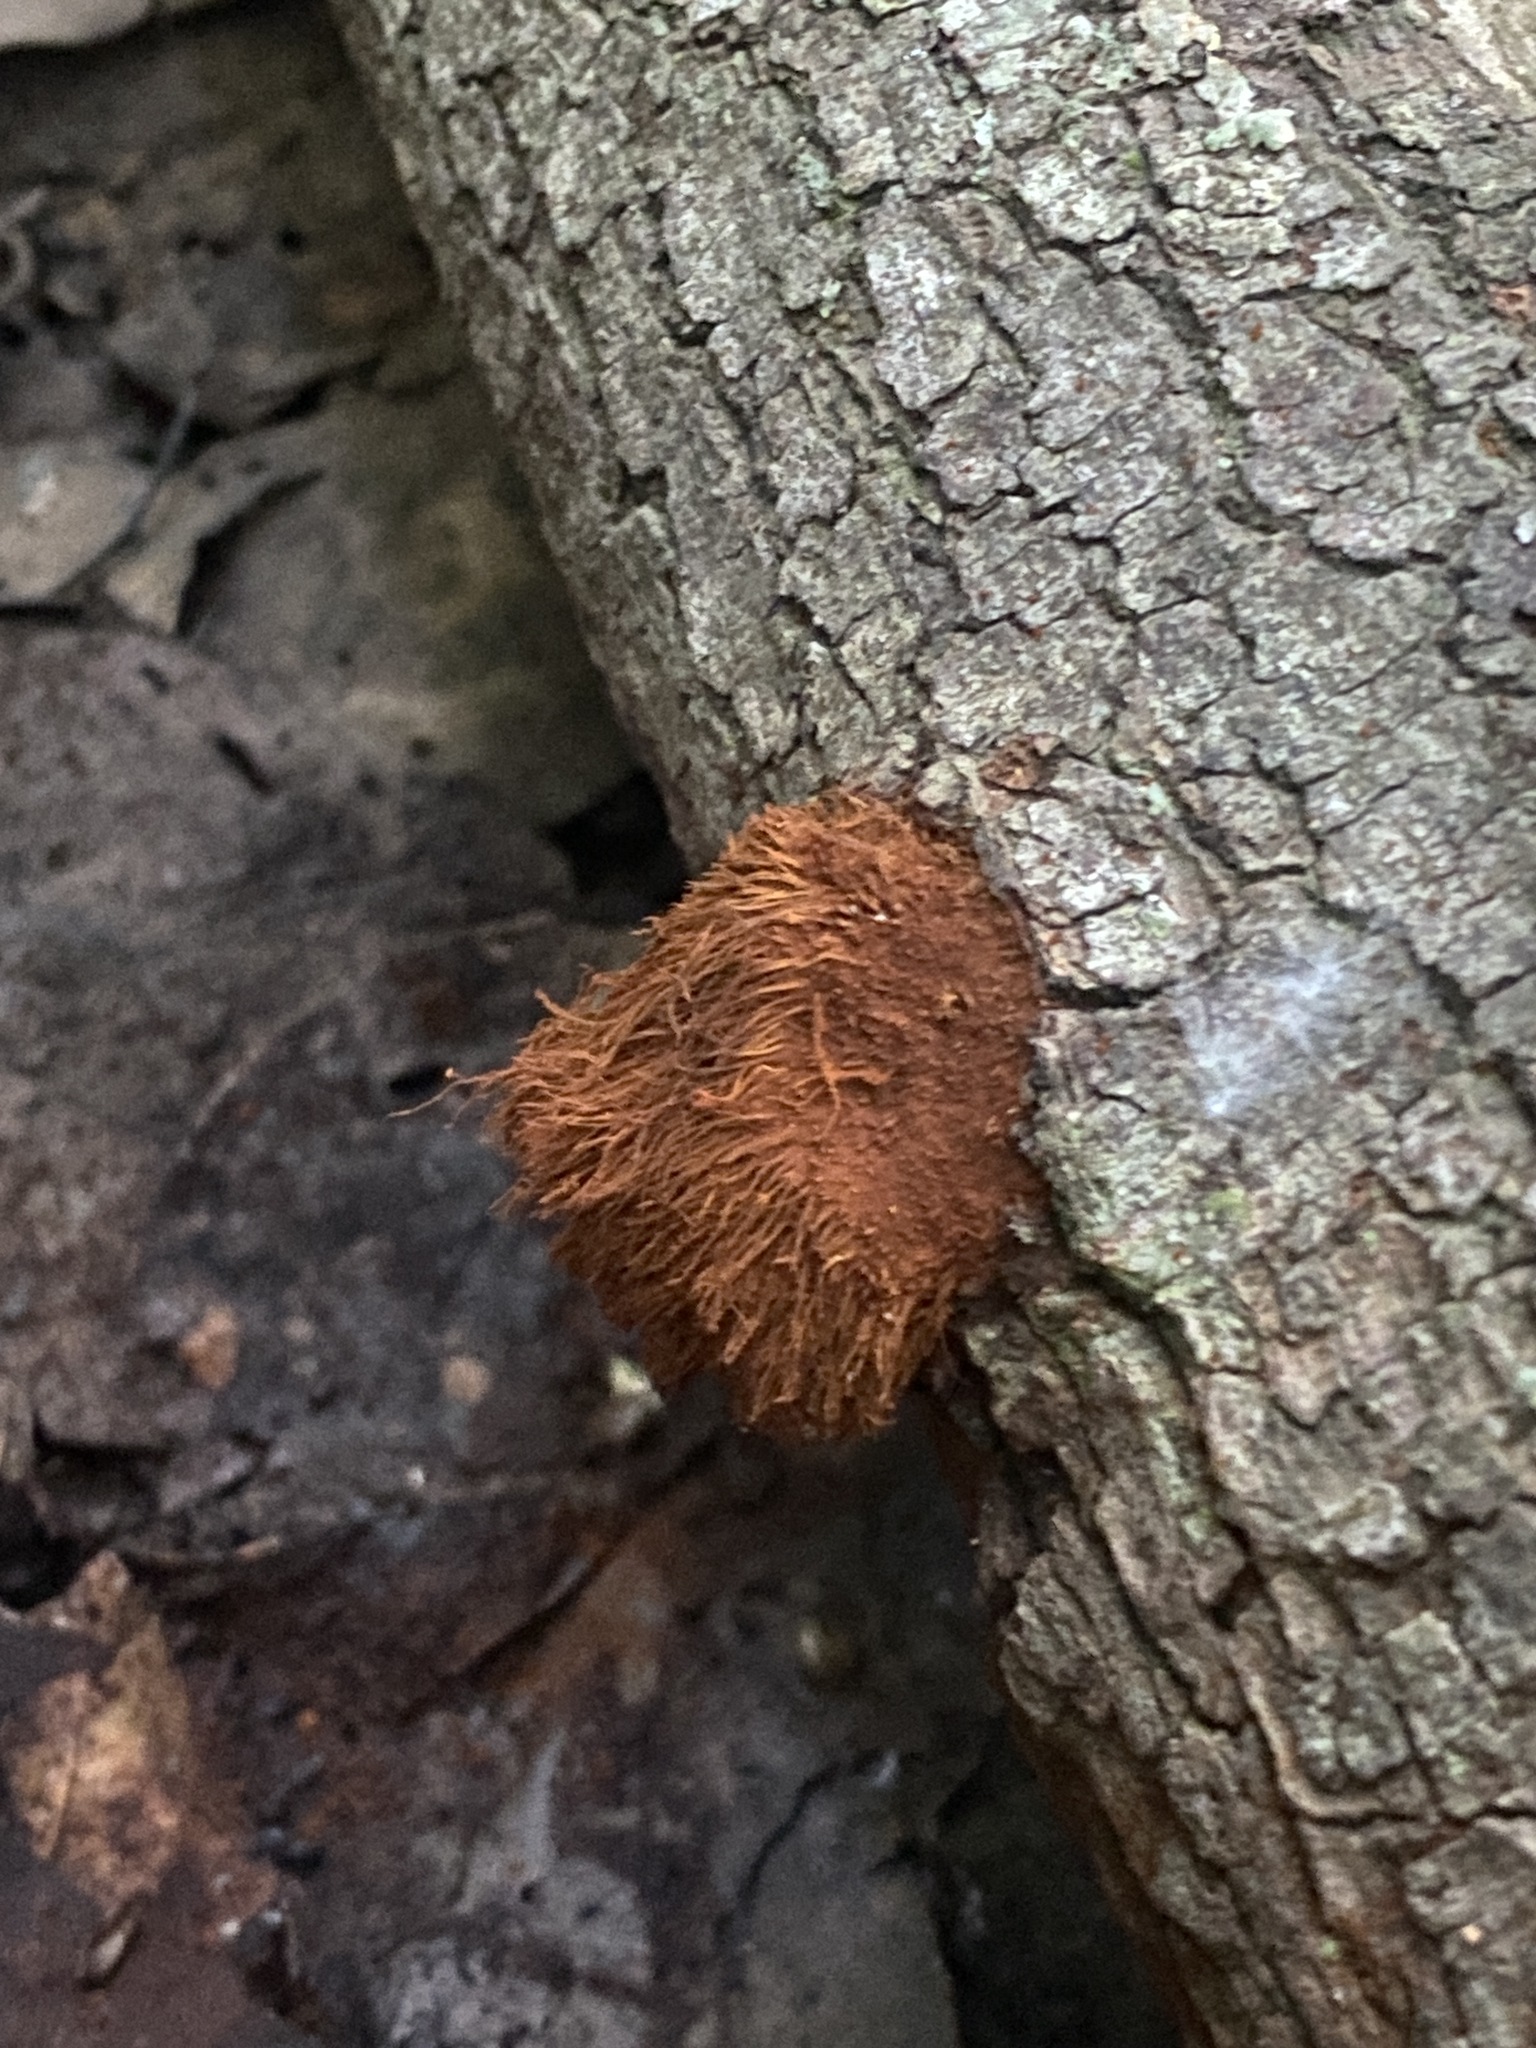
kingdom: Fungi
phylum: Basidiomycota
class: Agaricomycetes
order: Hymenochaetales
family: Hymenochaetaceae
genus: Inonotus
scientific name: Inonotus rickii
